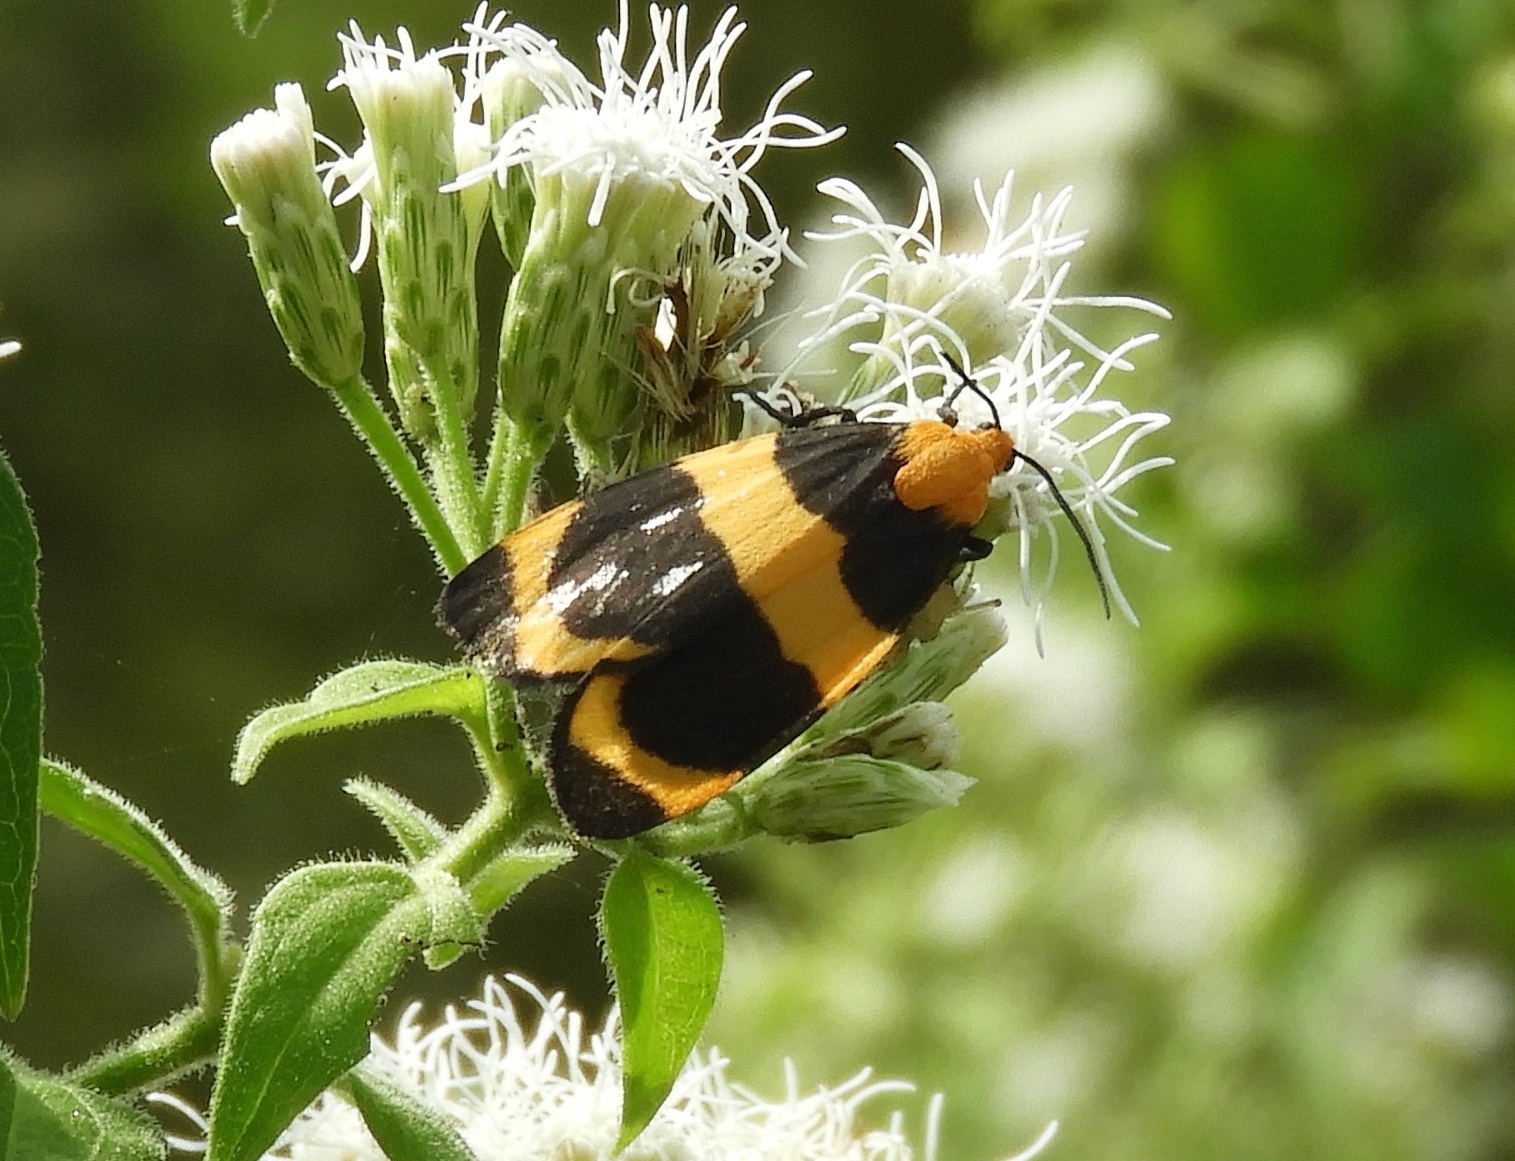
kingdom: Animalia
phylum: Arthropoda
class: Insecta
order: Lepidoptera
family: Erebidae
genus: Eudesmia
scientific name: Eudesmia menea
